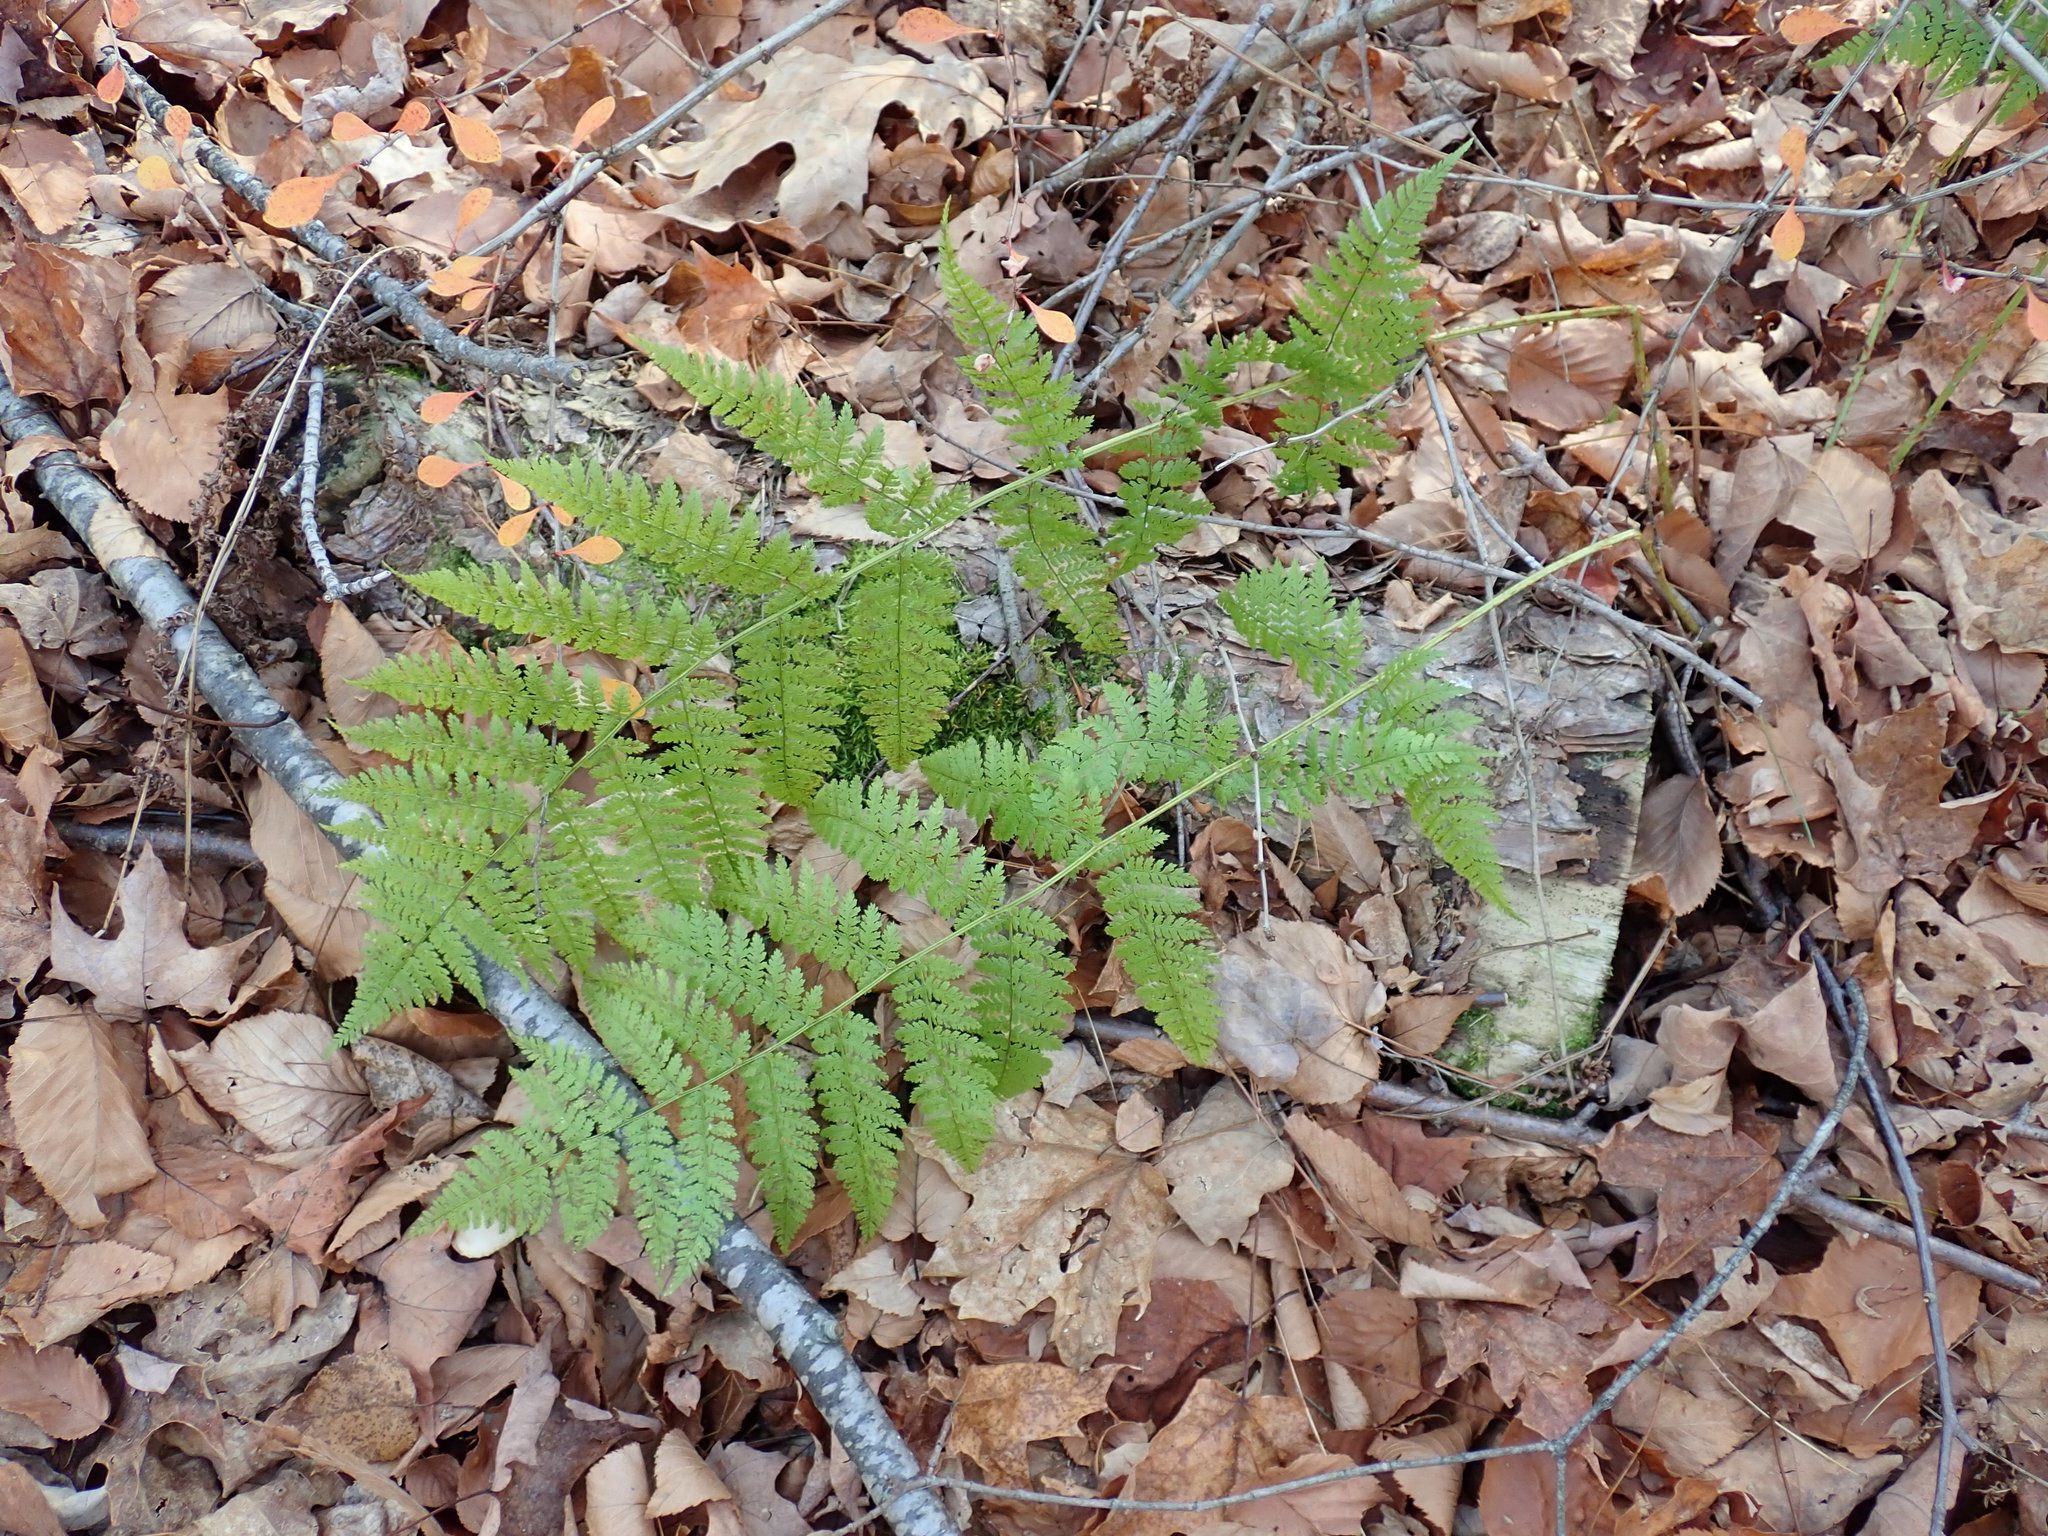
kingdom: Plantae
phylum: Tracheophyta
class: Polypodiopsida
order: Polypodiales
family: Dryopteridaceae
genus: Dryopteris
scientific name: Dryopteris intermedia
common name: Evergreen wood fern
